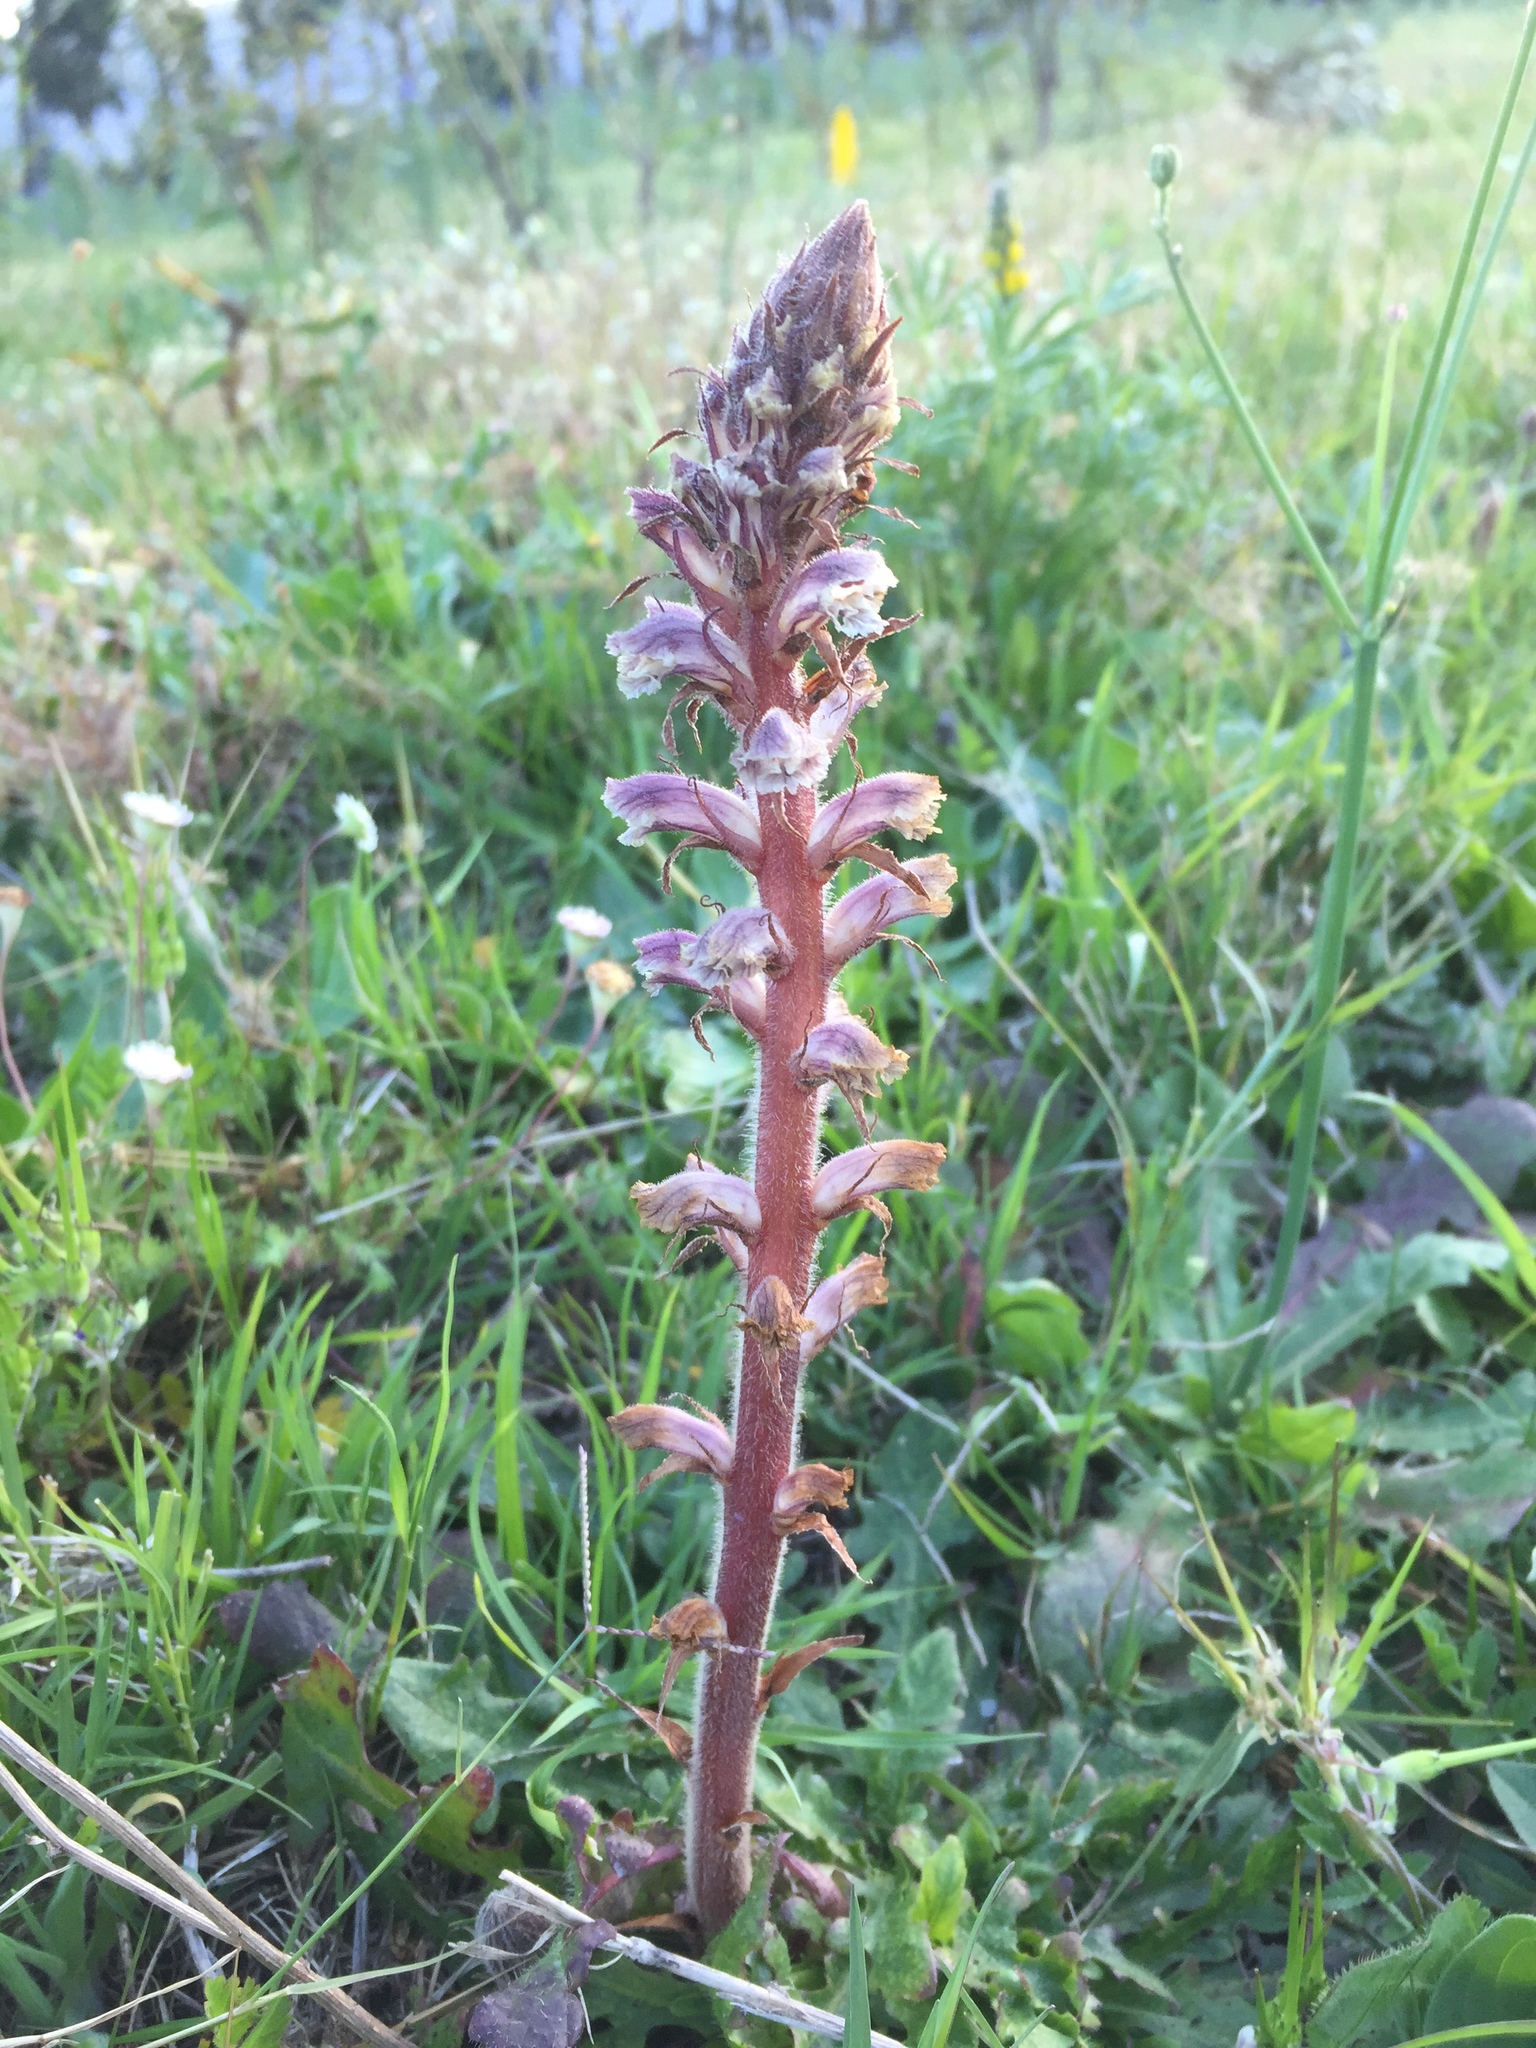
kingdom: Plantae
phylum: Tracheophyta
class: Magnoliopsida
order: Lamiales
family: Orobanchaceae
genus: Orobanche
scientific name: Orobanche minor
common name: Common broomrape
